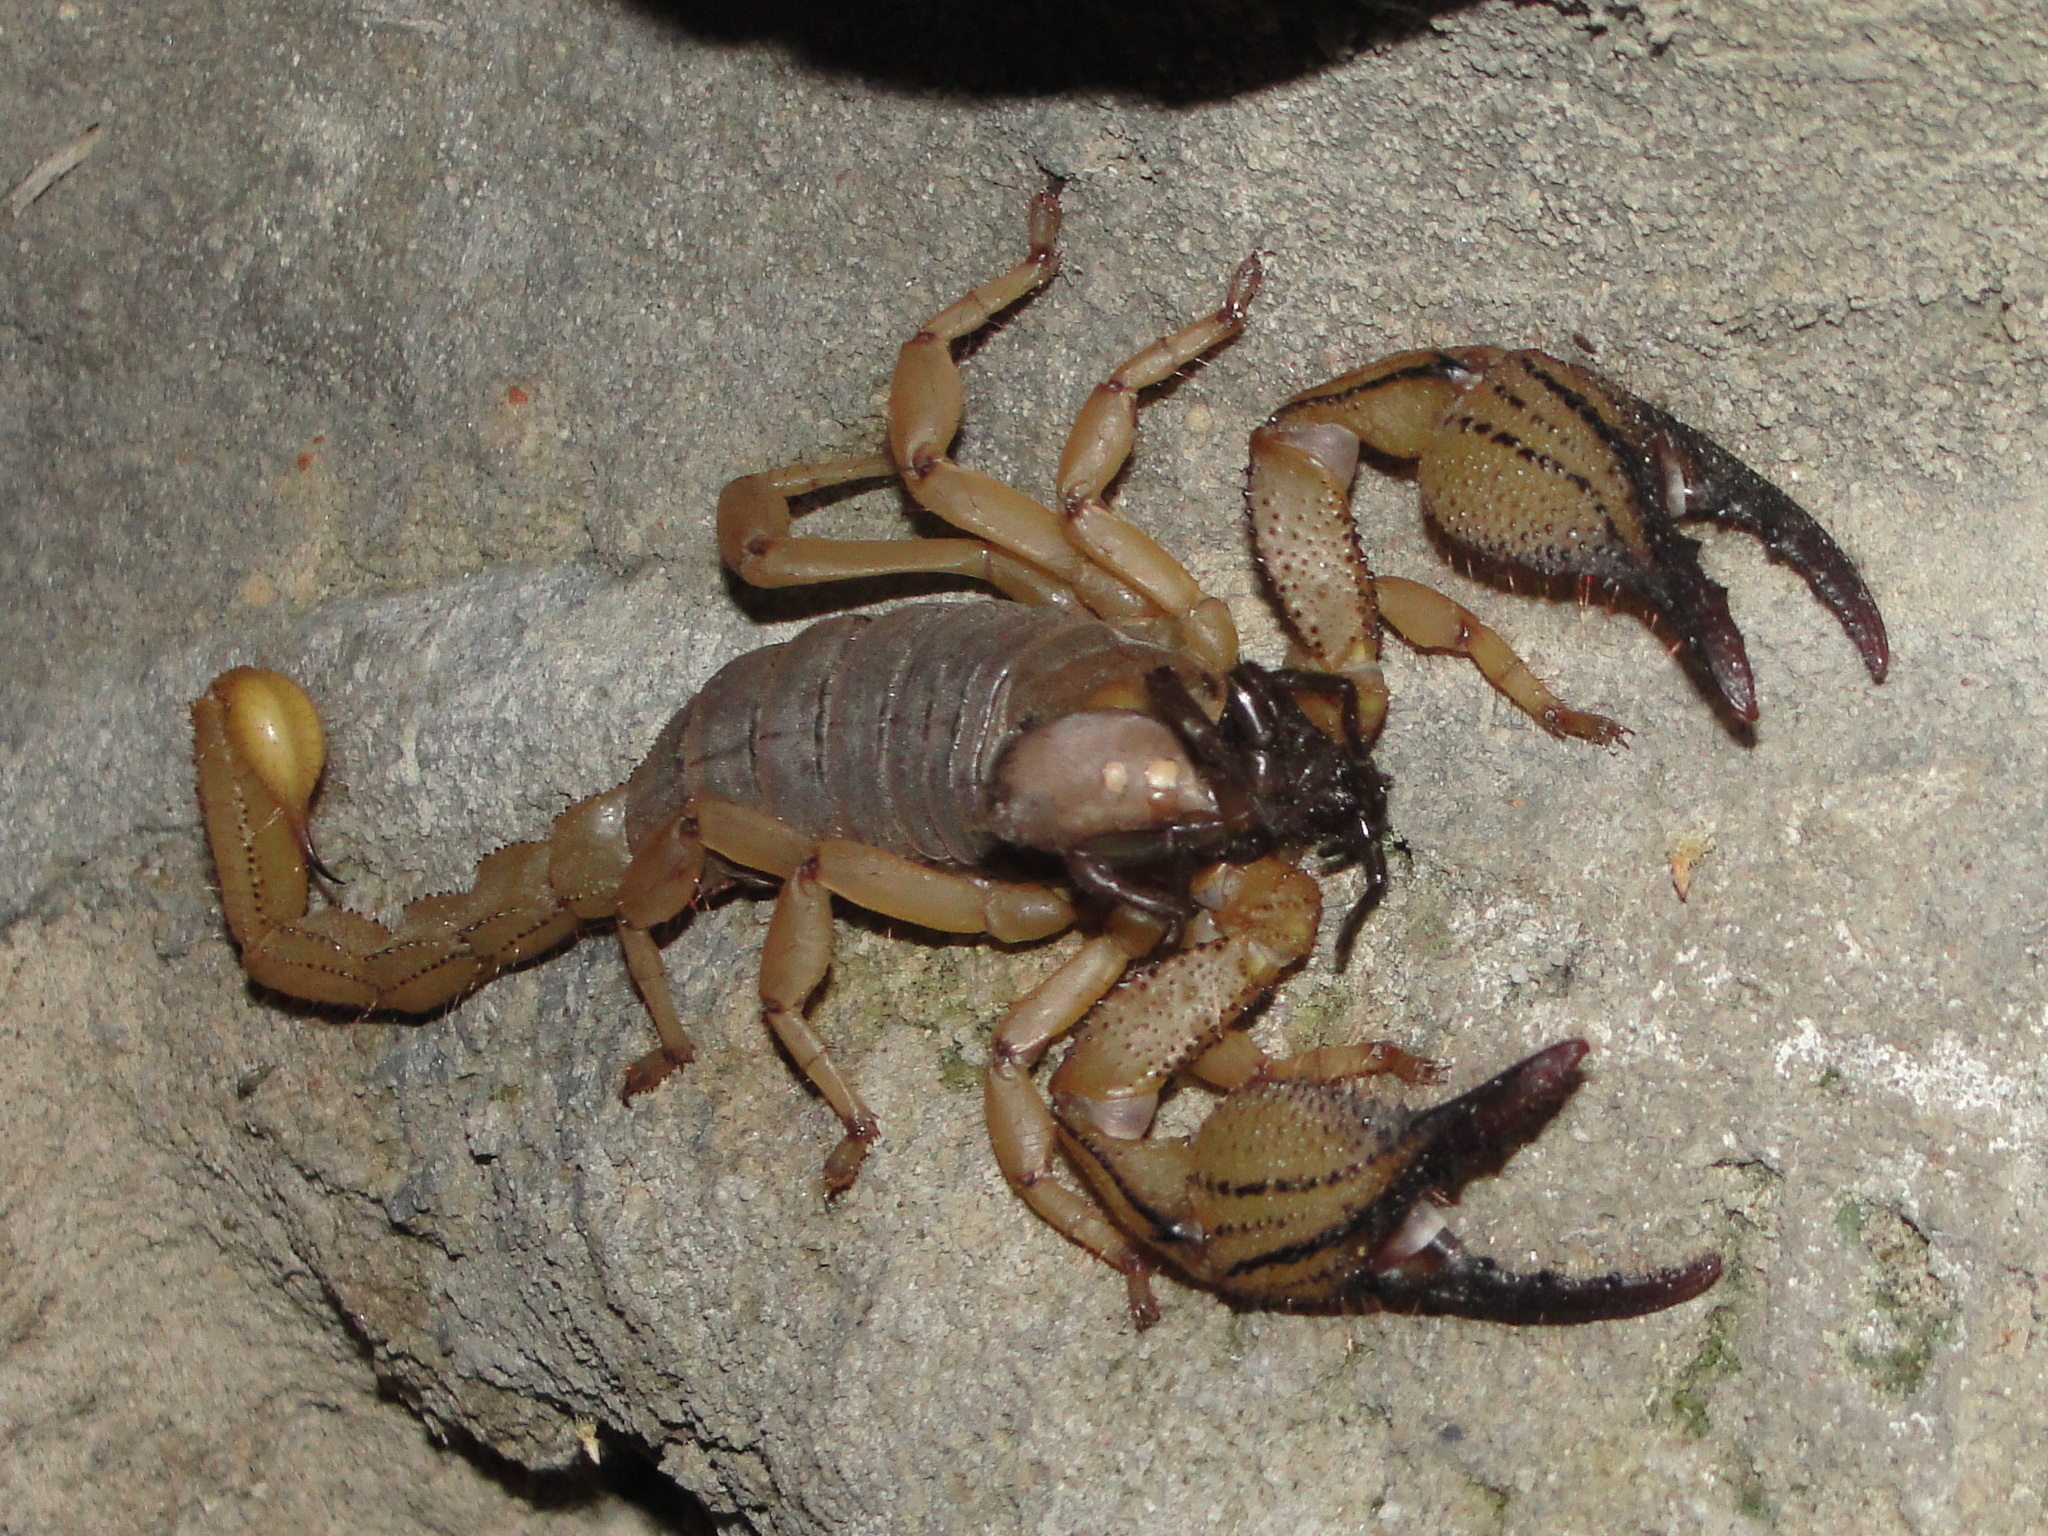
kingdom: Animalia
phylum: Arthropoda
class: Arachnida
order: Scorpiones
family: Scorpionidae
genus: Opistophthalmus
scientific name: Opistophthalmus macer
